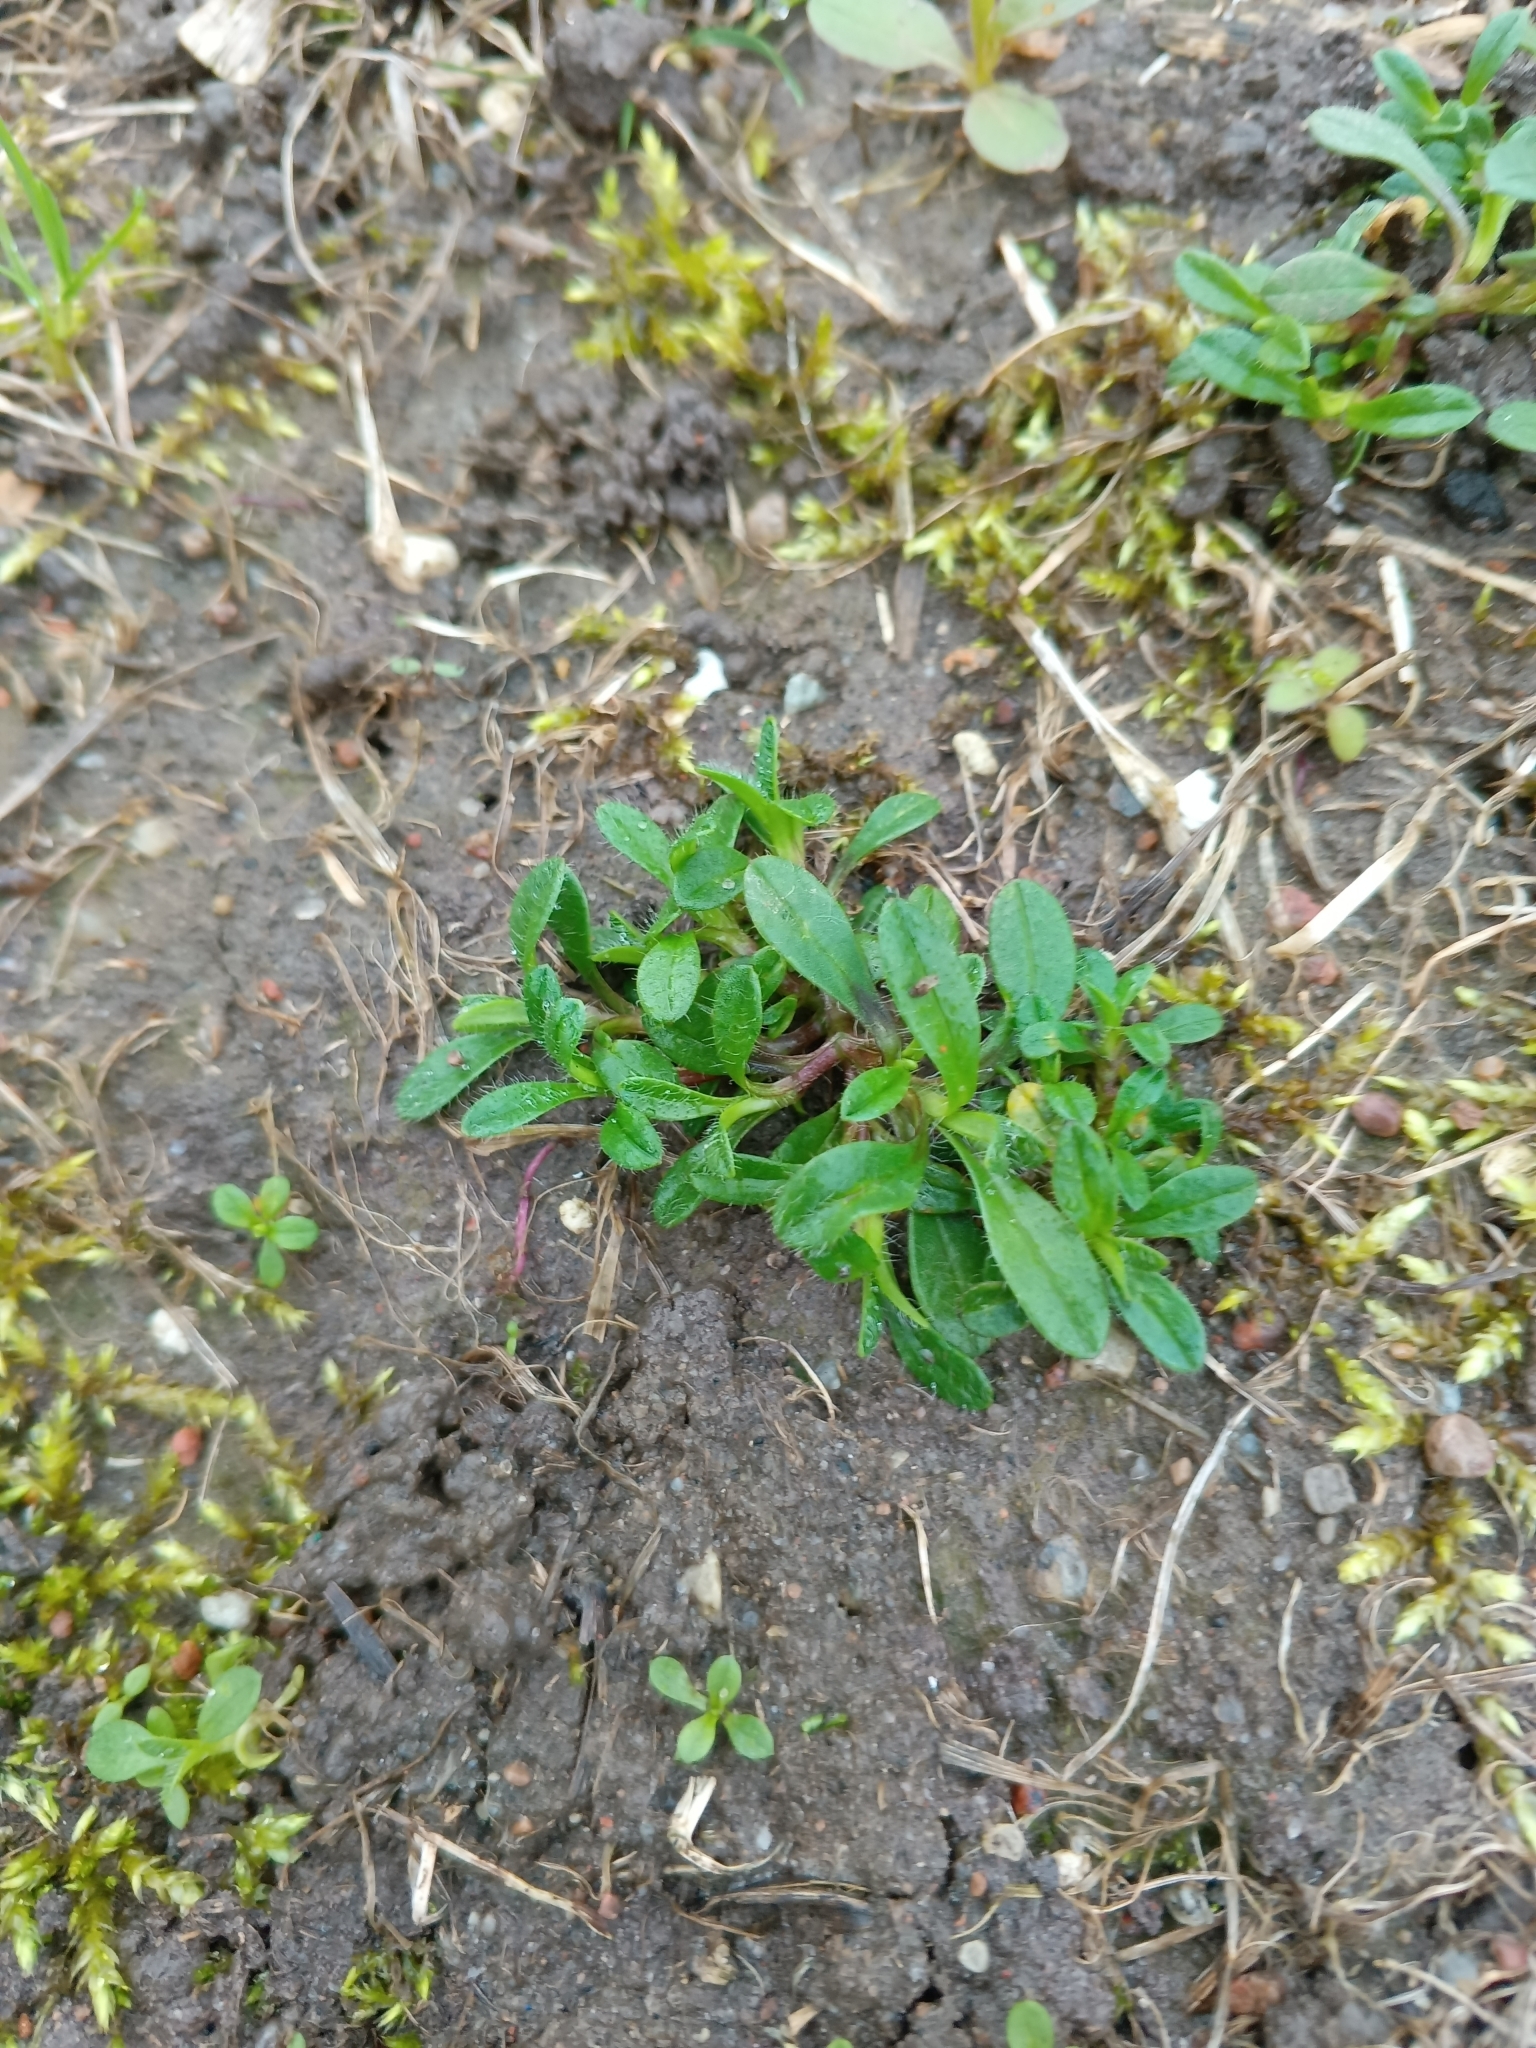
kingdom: Plantae
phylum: Tracheophyta
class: Magnoliopsida
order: Caryophyllales
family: Caryophyllaceae
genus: Cerastium
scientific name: Cerastium holosteoides
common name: Big chickweed
